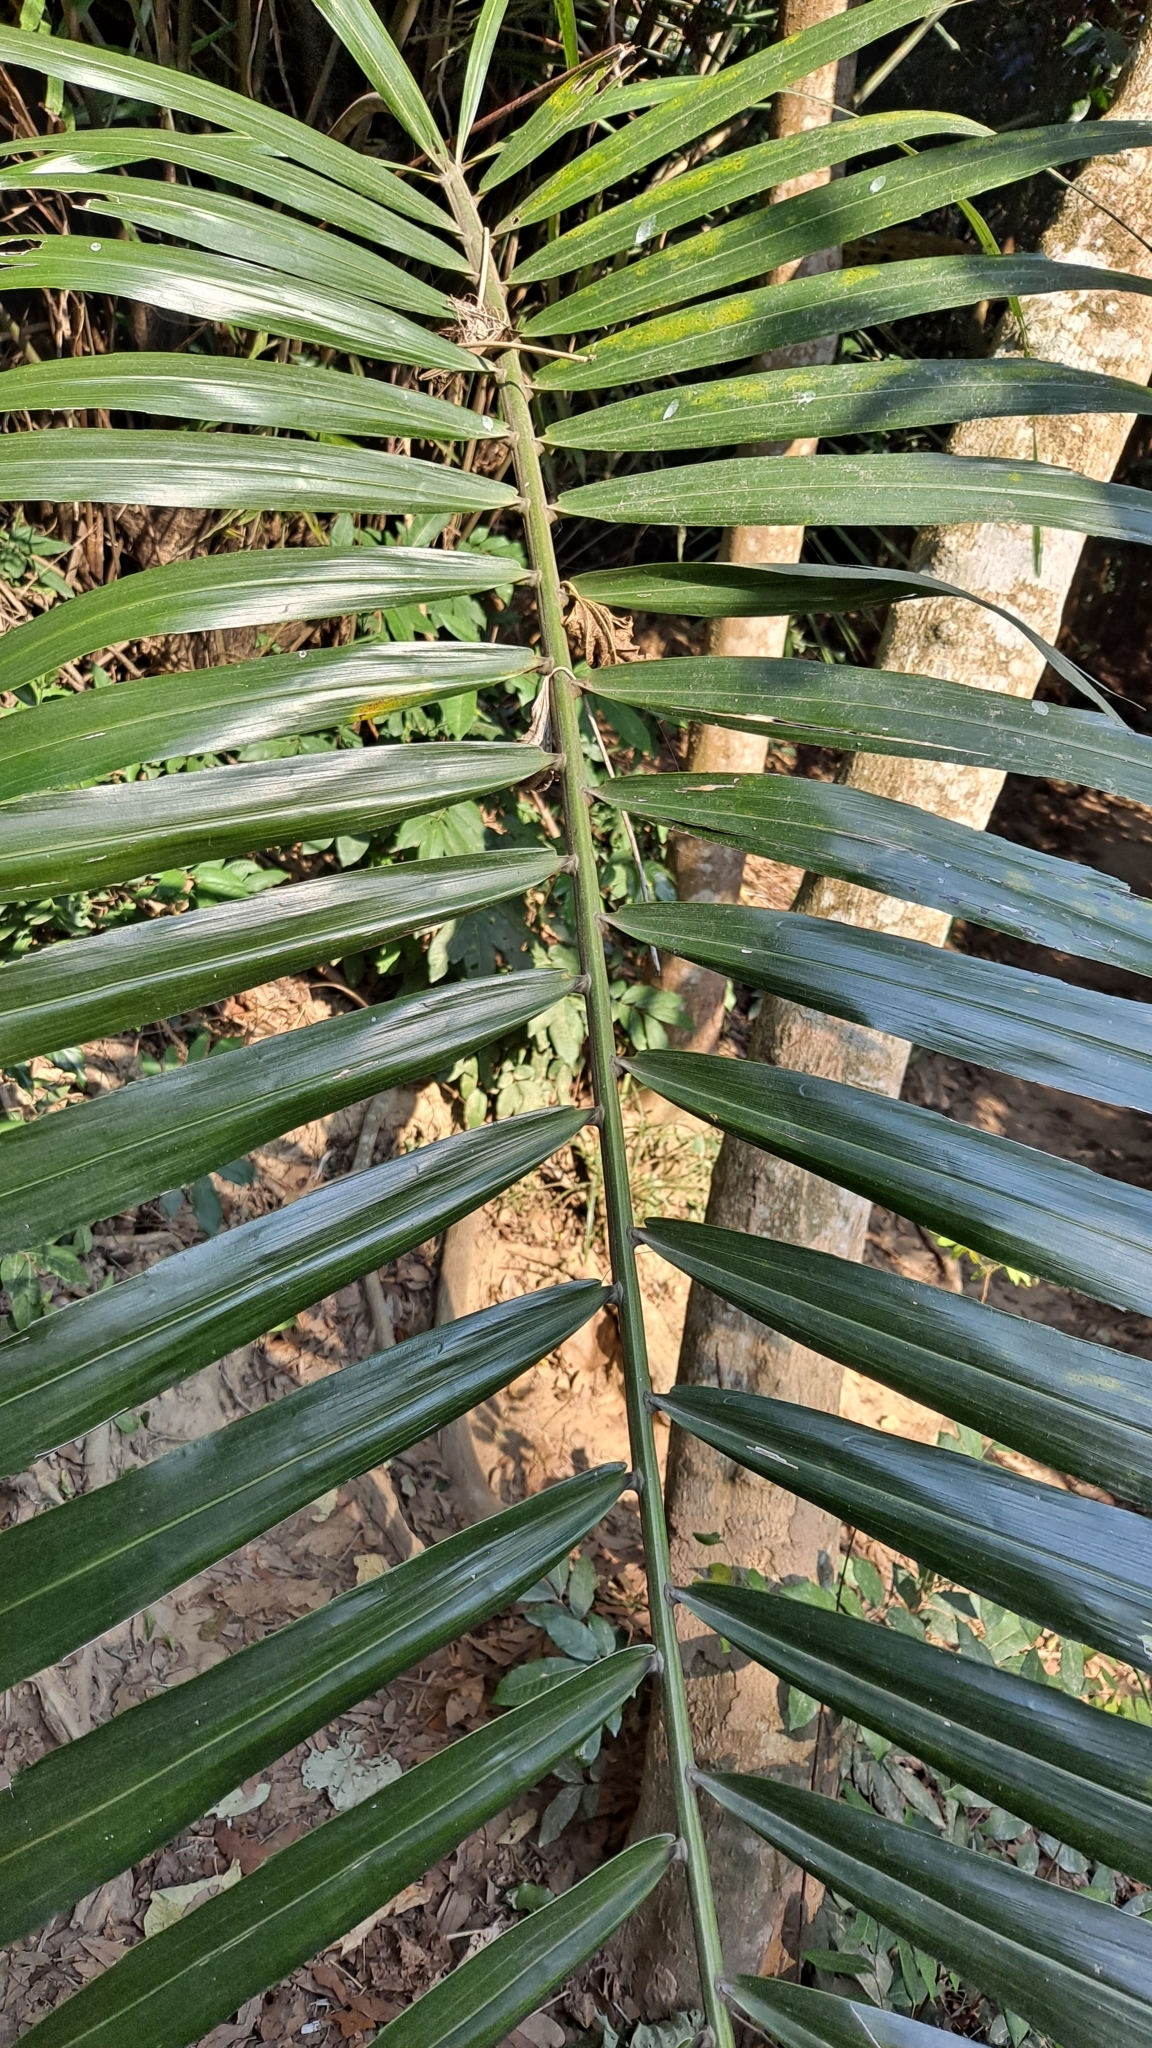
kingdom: Plantae
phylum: Tracheophyta
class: Liliopsida
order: Arecales
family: Arecaceae
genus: Arenga
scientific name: Arenga engleri
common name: Formosan sugar palm
